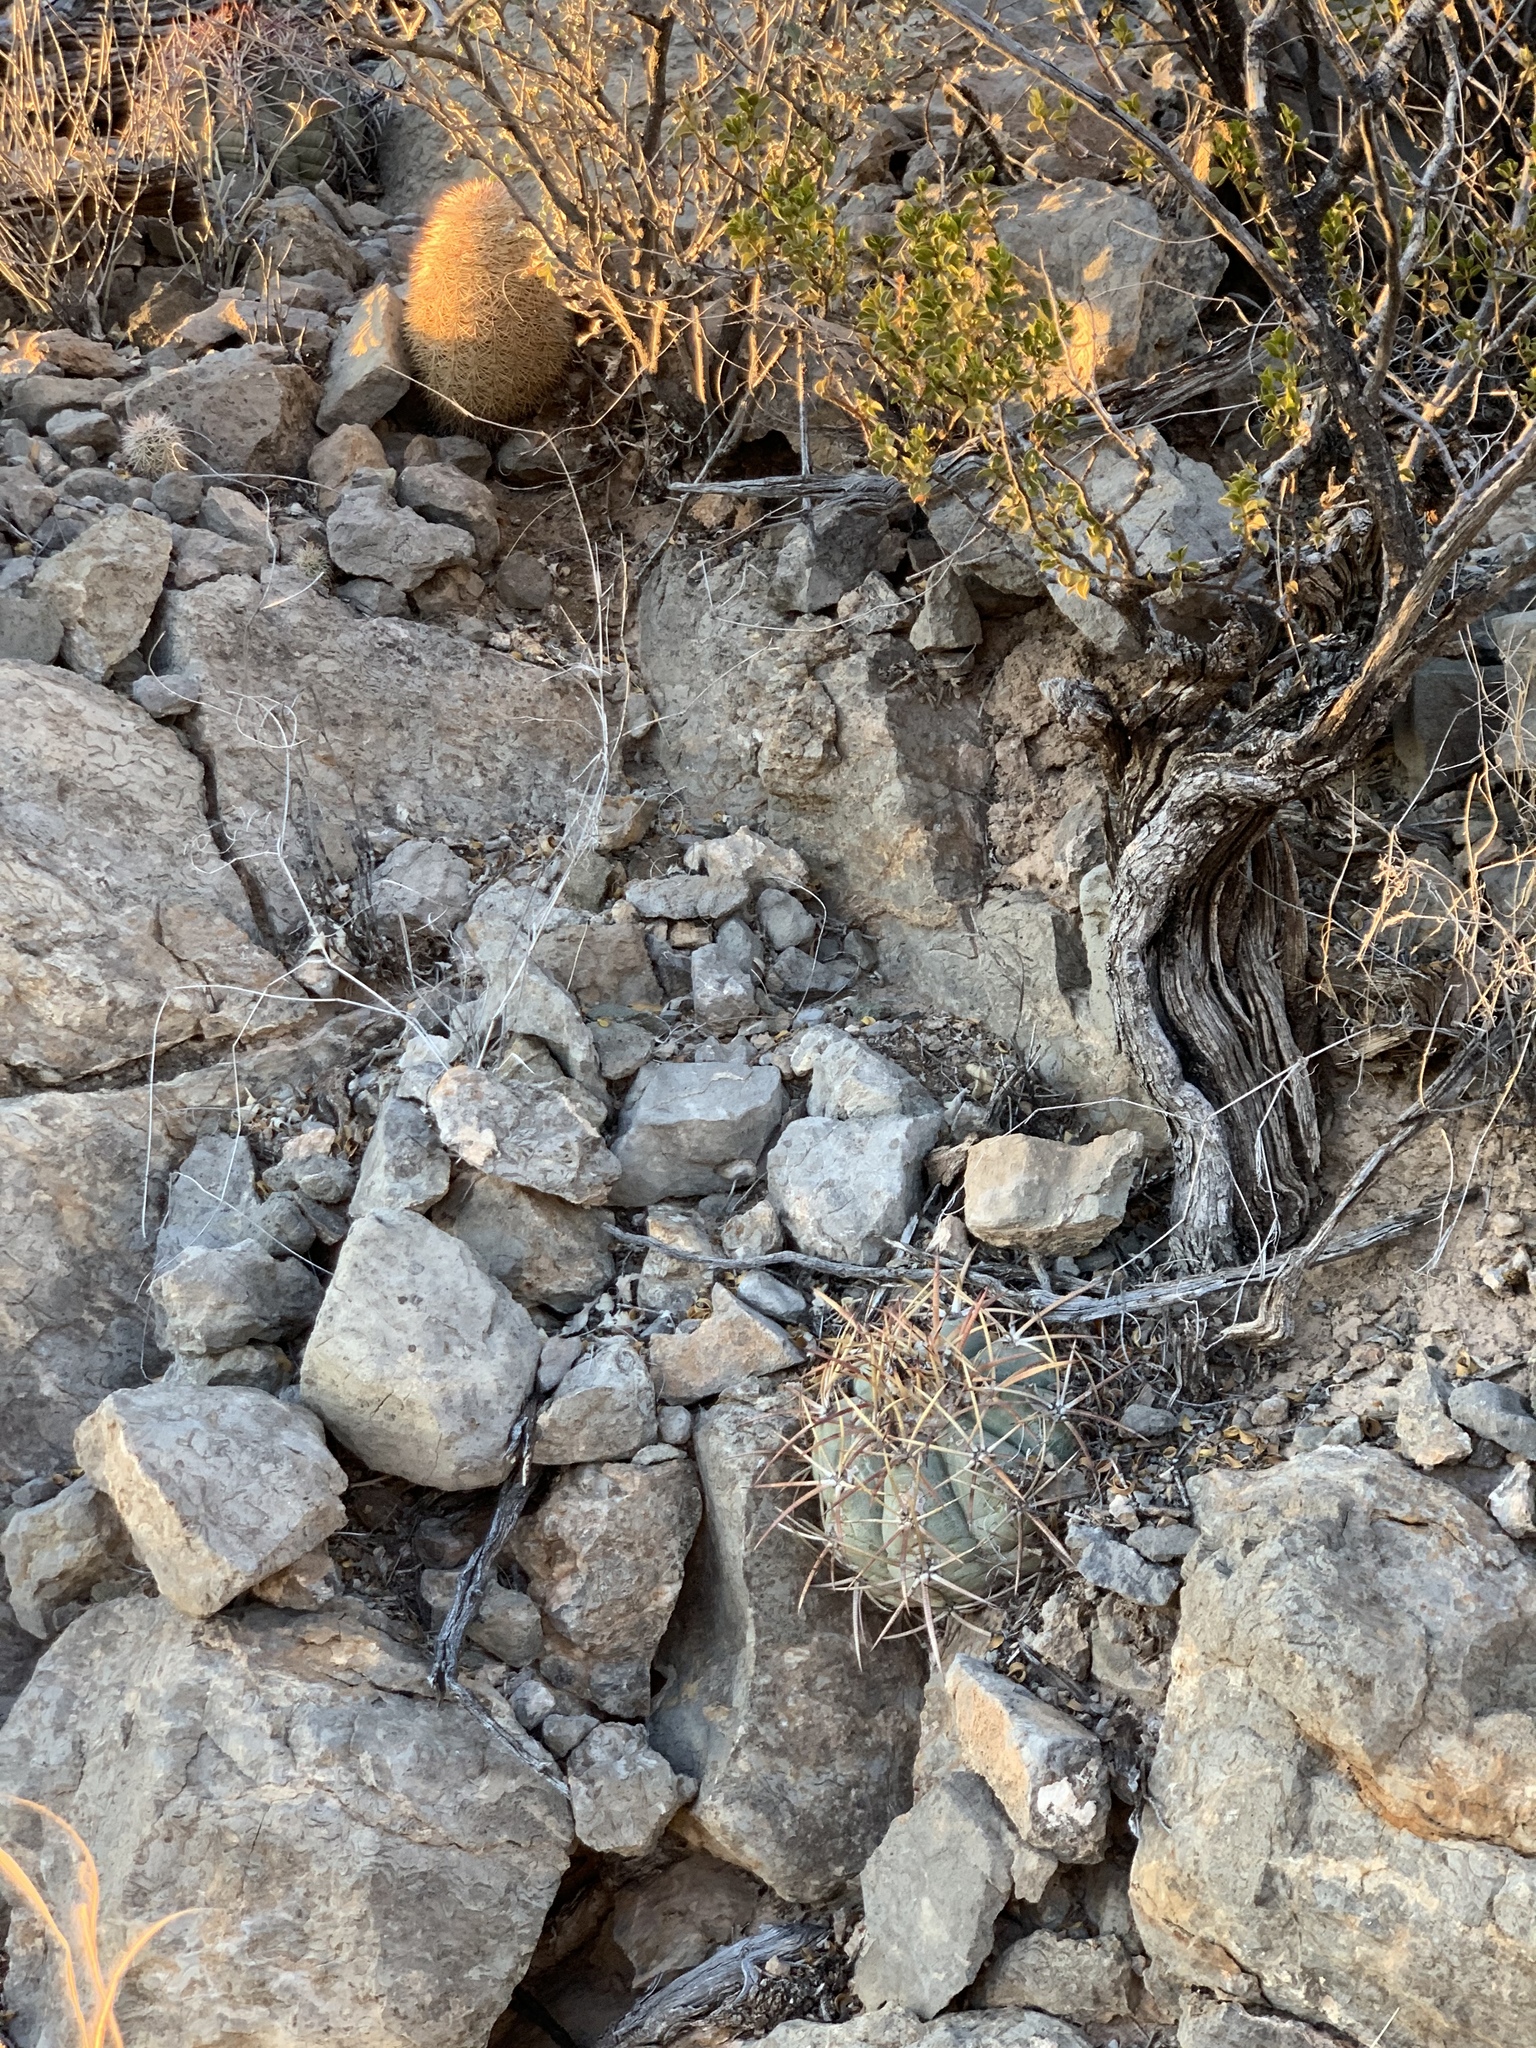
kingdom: Plantae
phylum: Tracheophyta
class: Magnoliopsida
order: Caryophyllales
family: Cactaceae
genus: Echinocactus
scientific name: Echinocactus horizonthalonius
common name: Devilshead
